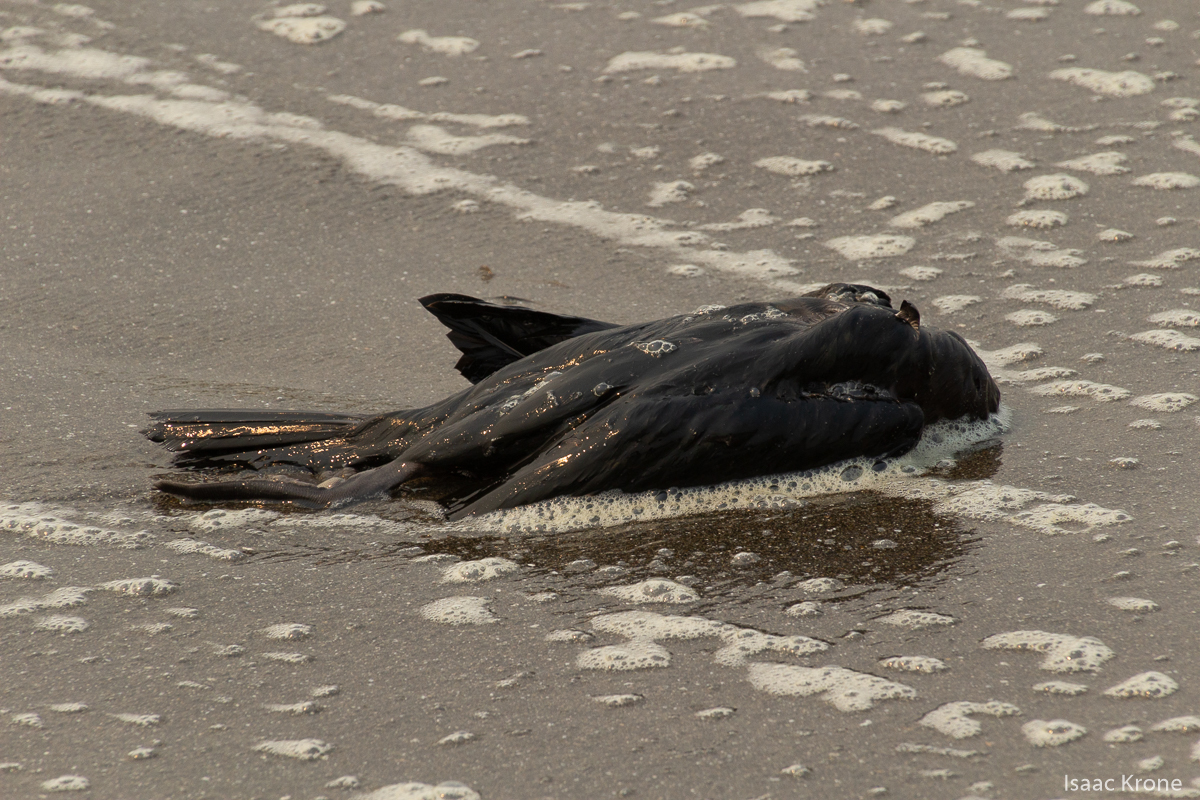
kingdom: Animalia
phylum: Chordata
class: Aves
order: Suliformes
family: Phalacrocoracidae
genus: Urile
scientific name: Urile penicillatus
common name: Brandt's cormorant
